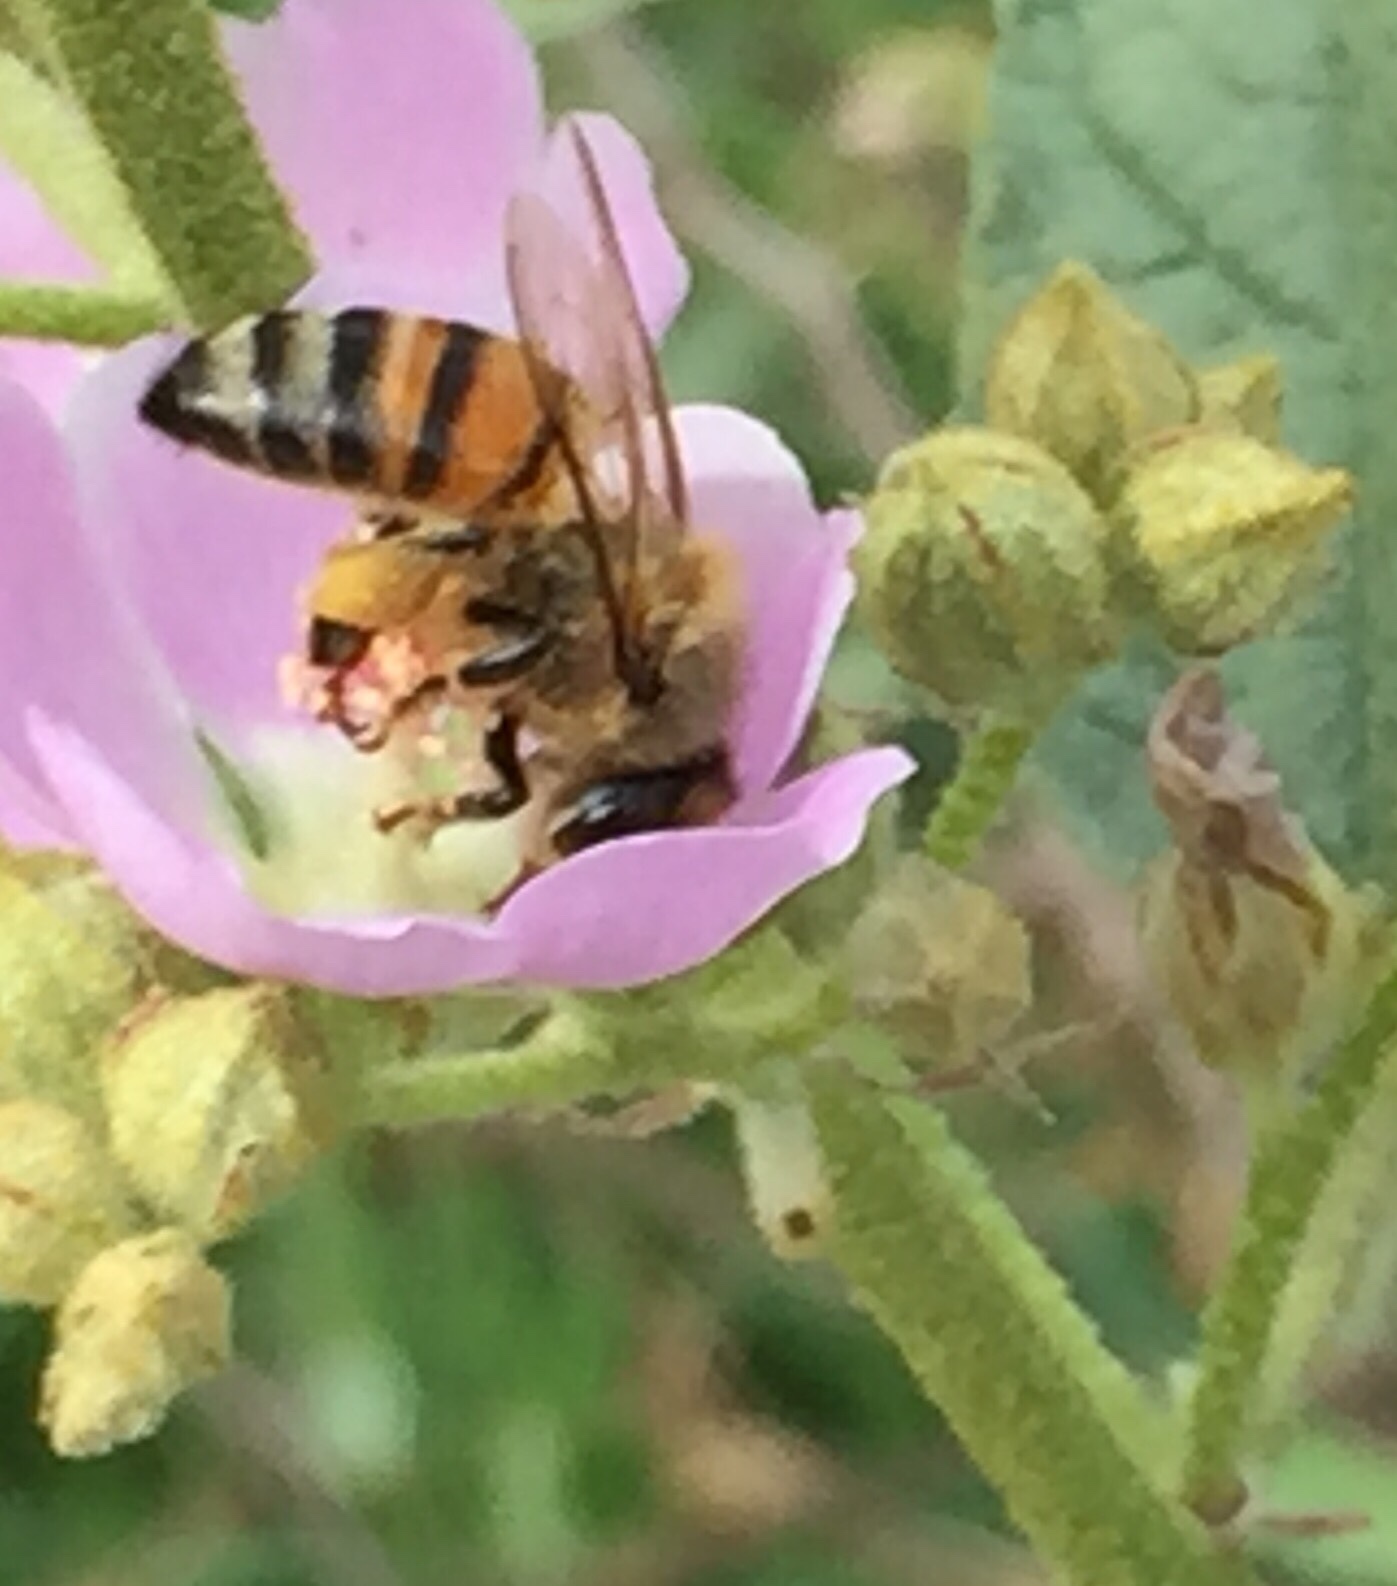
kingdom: Animalia
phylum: Arthropoda
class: Insecta
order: Hymenoptera
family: Apidae
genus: Apis
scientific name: Apis mellifera
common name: Honey bee
